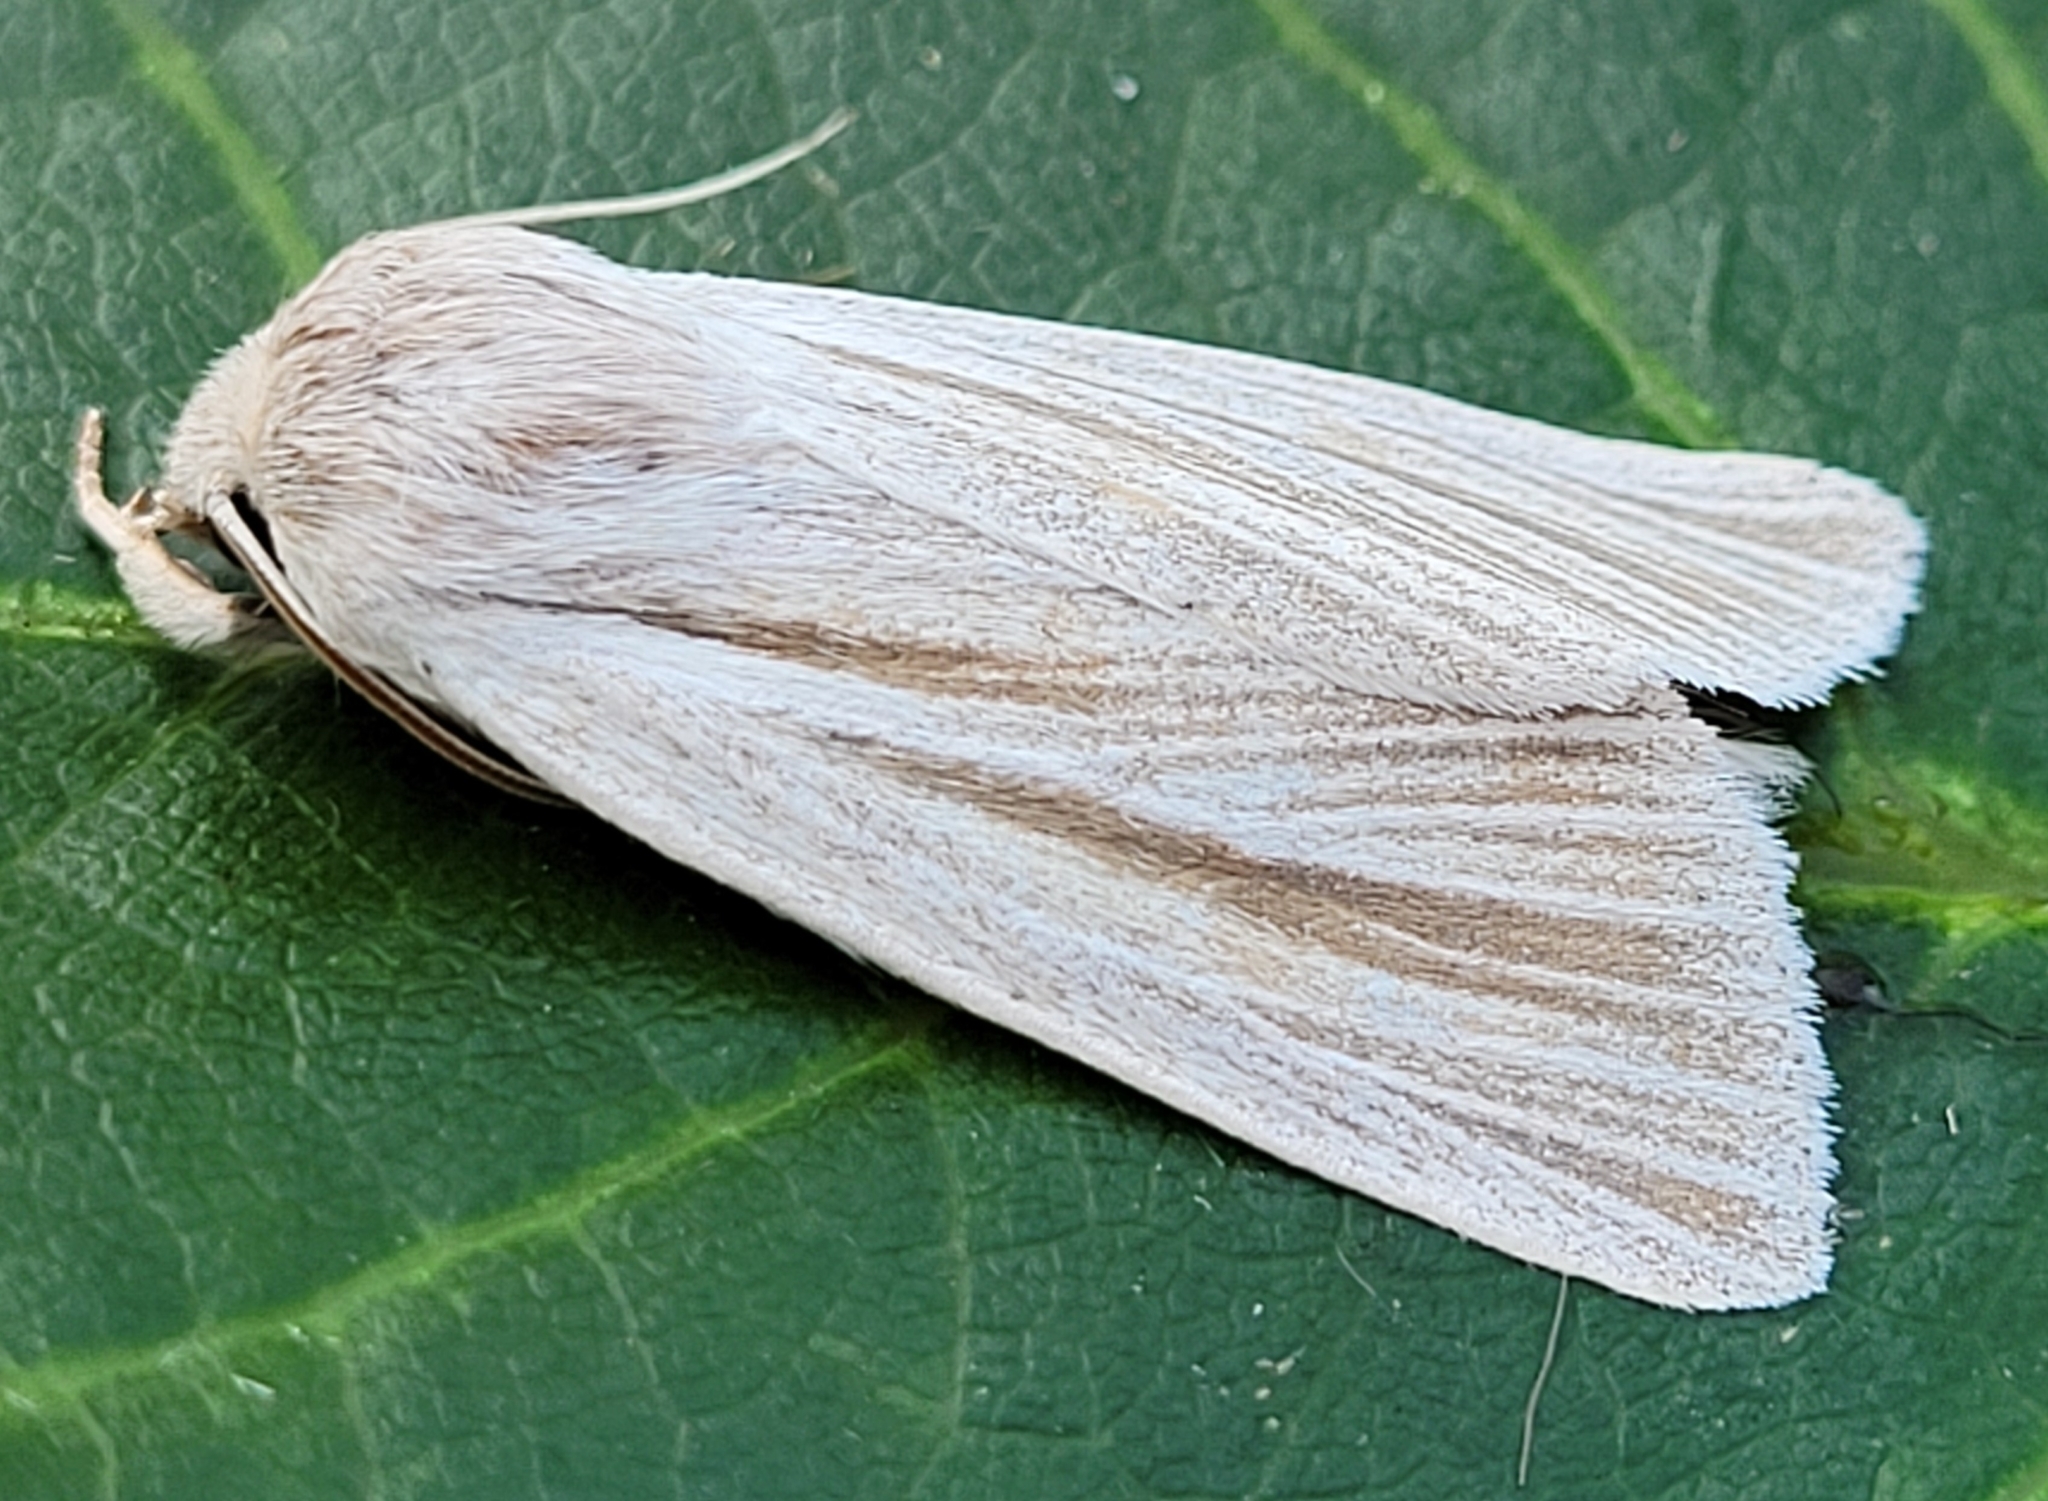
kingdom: Animalia
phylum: Arthropoda
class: Insecta
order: Lepidoptera
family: Noctuidae
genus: Acronicta
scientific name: Acronicta insularis
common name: Henry's marsh moth
